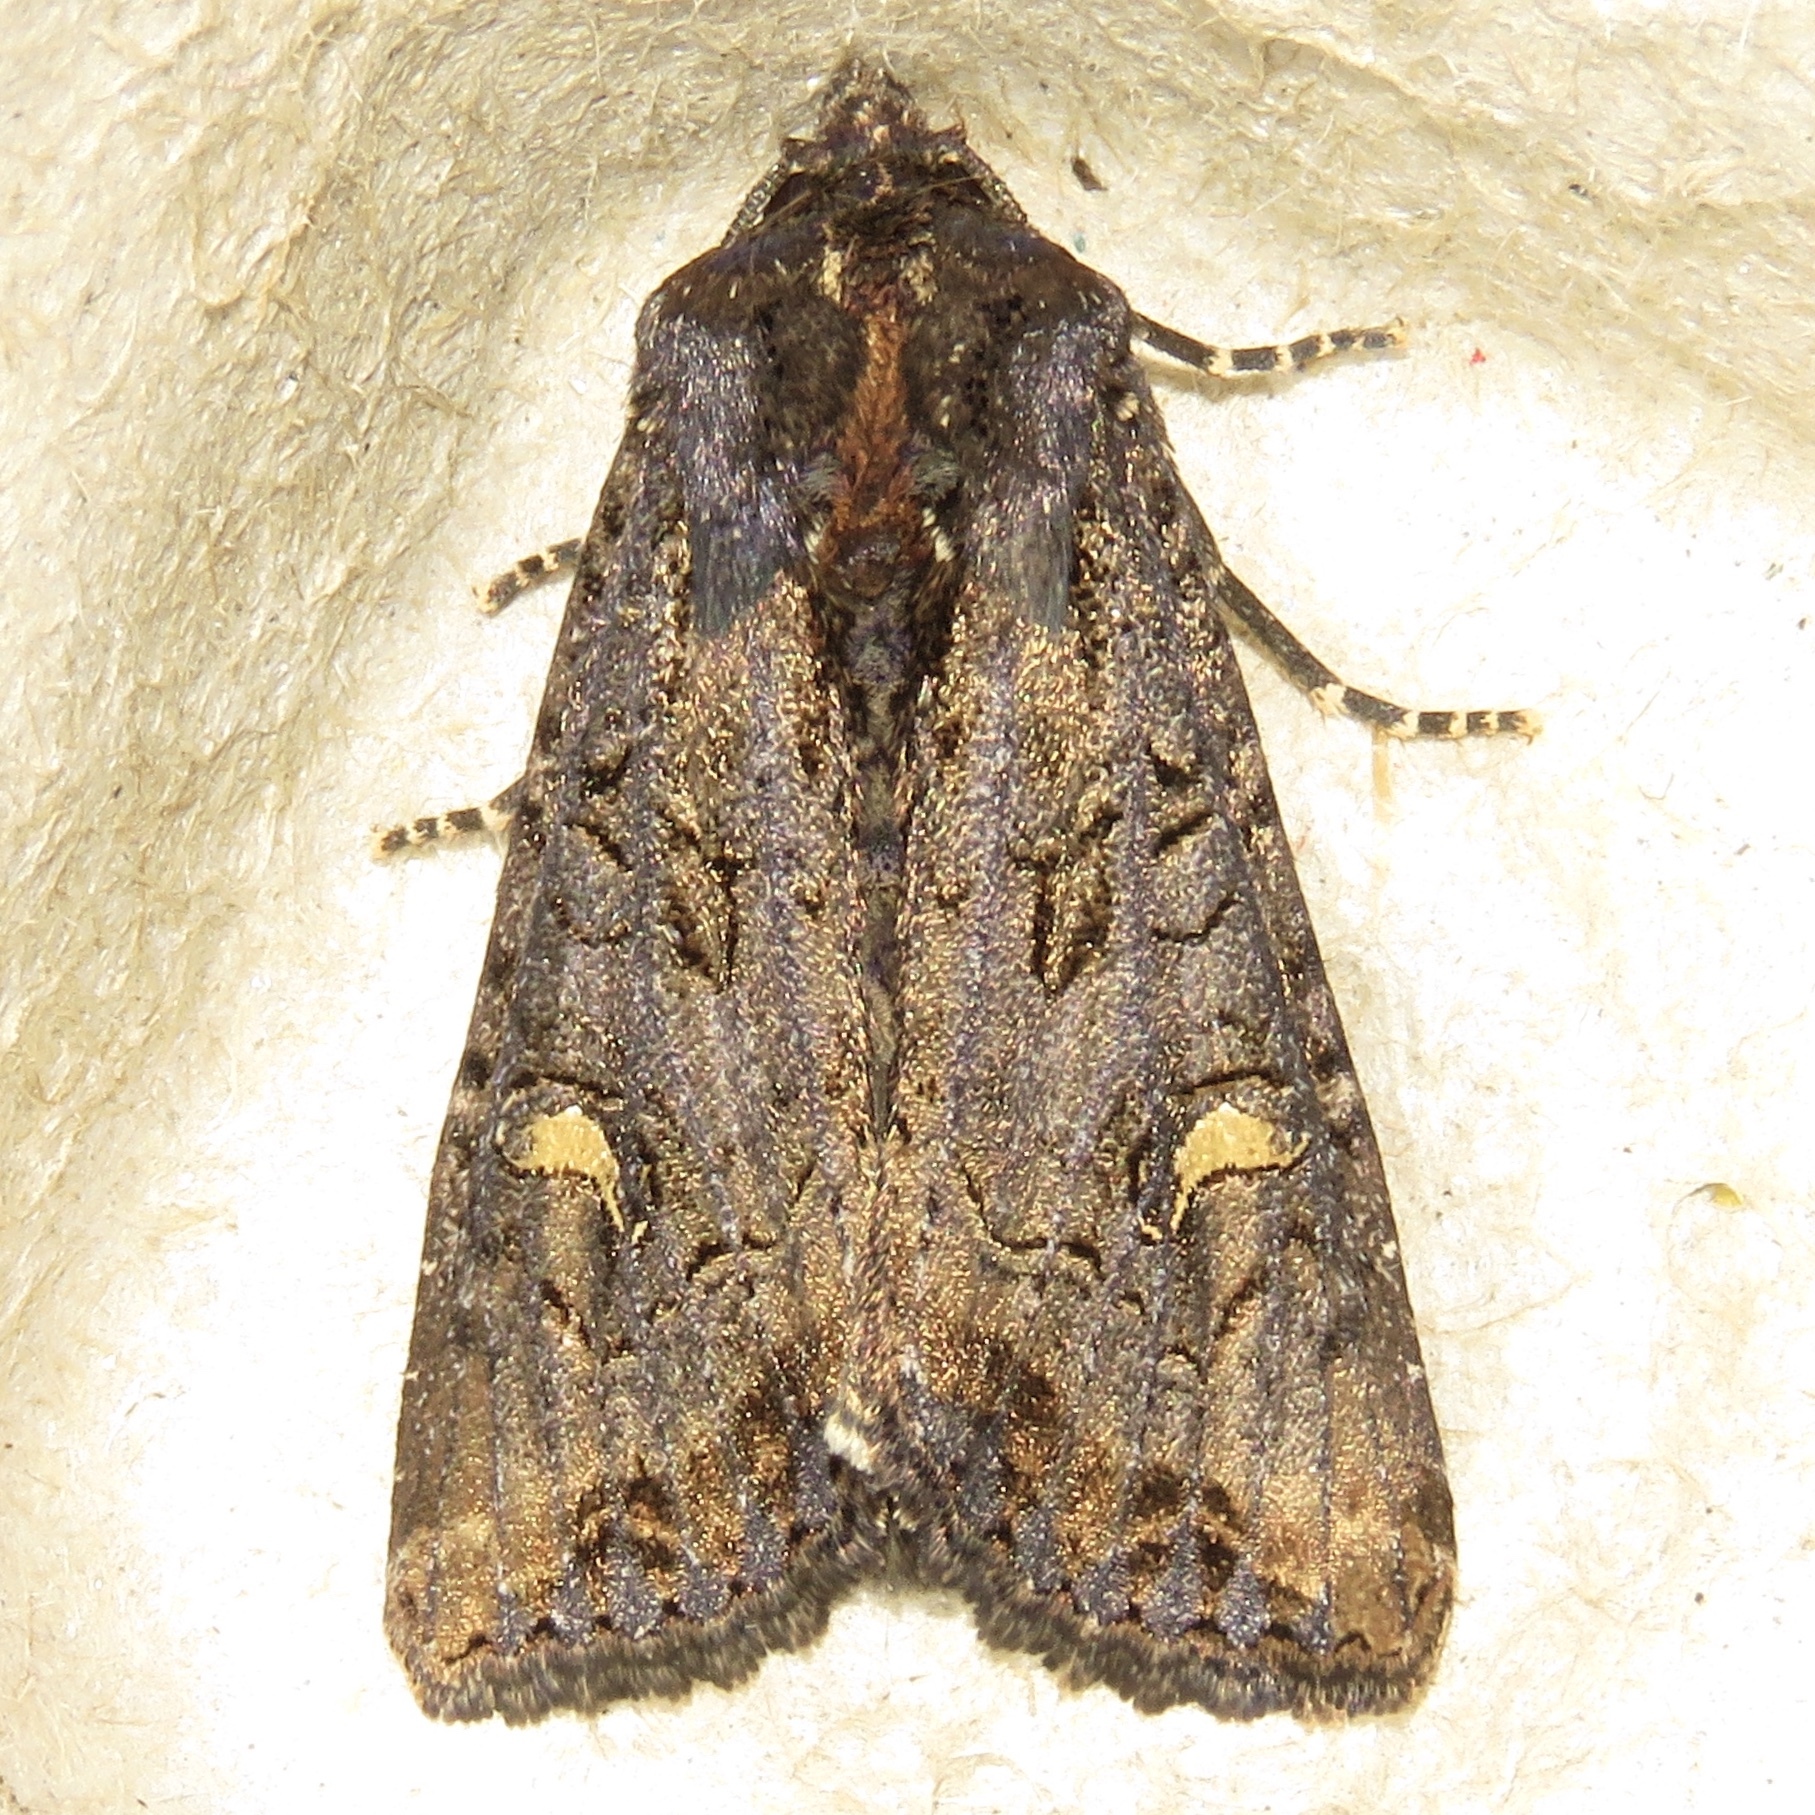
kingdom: Animalia
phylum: Arthropoda
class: Insecta
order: Lepidoptera
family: Noctuidae
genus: Helotropha
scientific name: Helotropha reniformis
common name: Kidney-spotted rustic moth
